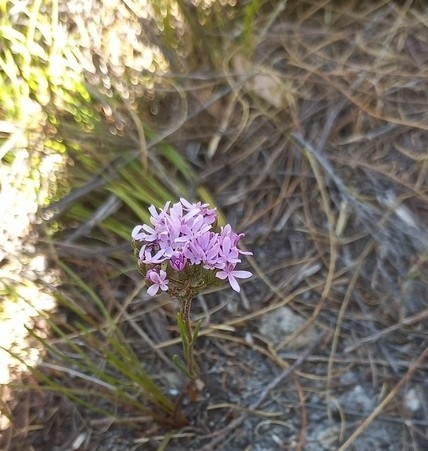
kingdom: Plantae
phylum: Tracheophyta
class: Magnoliopsida
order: Asterales
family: Asteraceae
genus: Corymbium
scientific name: Corymbium africanum
